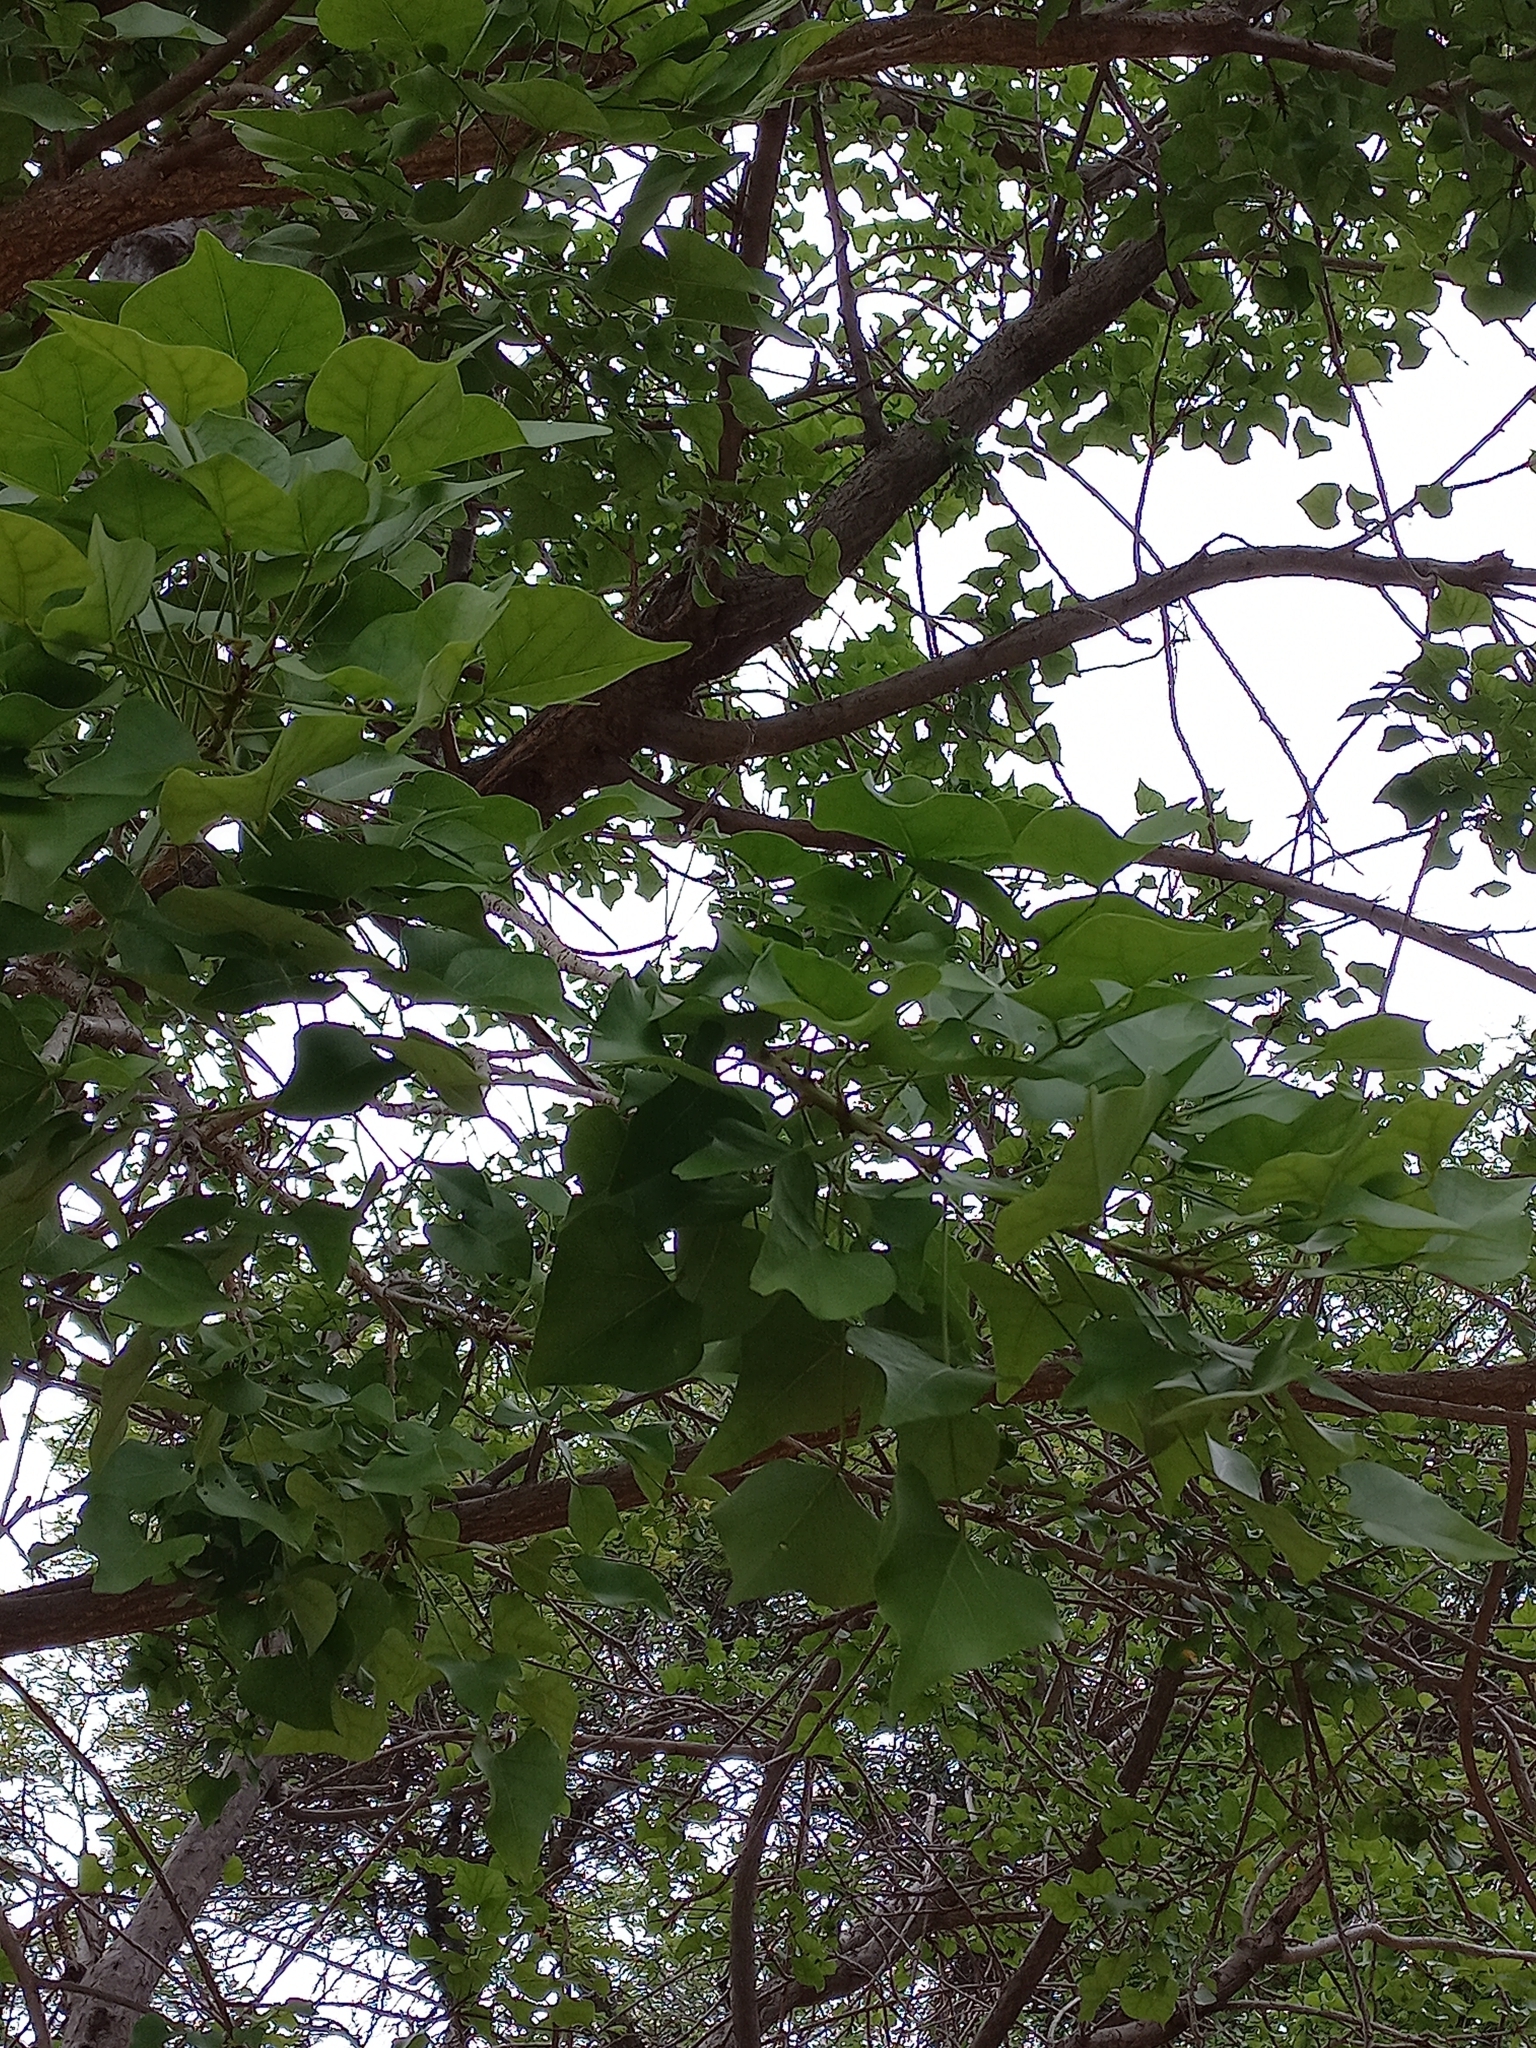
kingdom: Plantae
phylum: Tracheophyta
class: Magnoliopsida
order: Fabales
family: Fabaceae
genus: Erythrina
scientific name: Erythrina lysistemon
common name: Common coral tree
